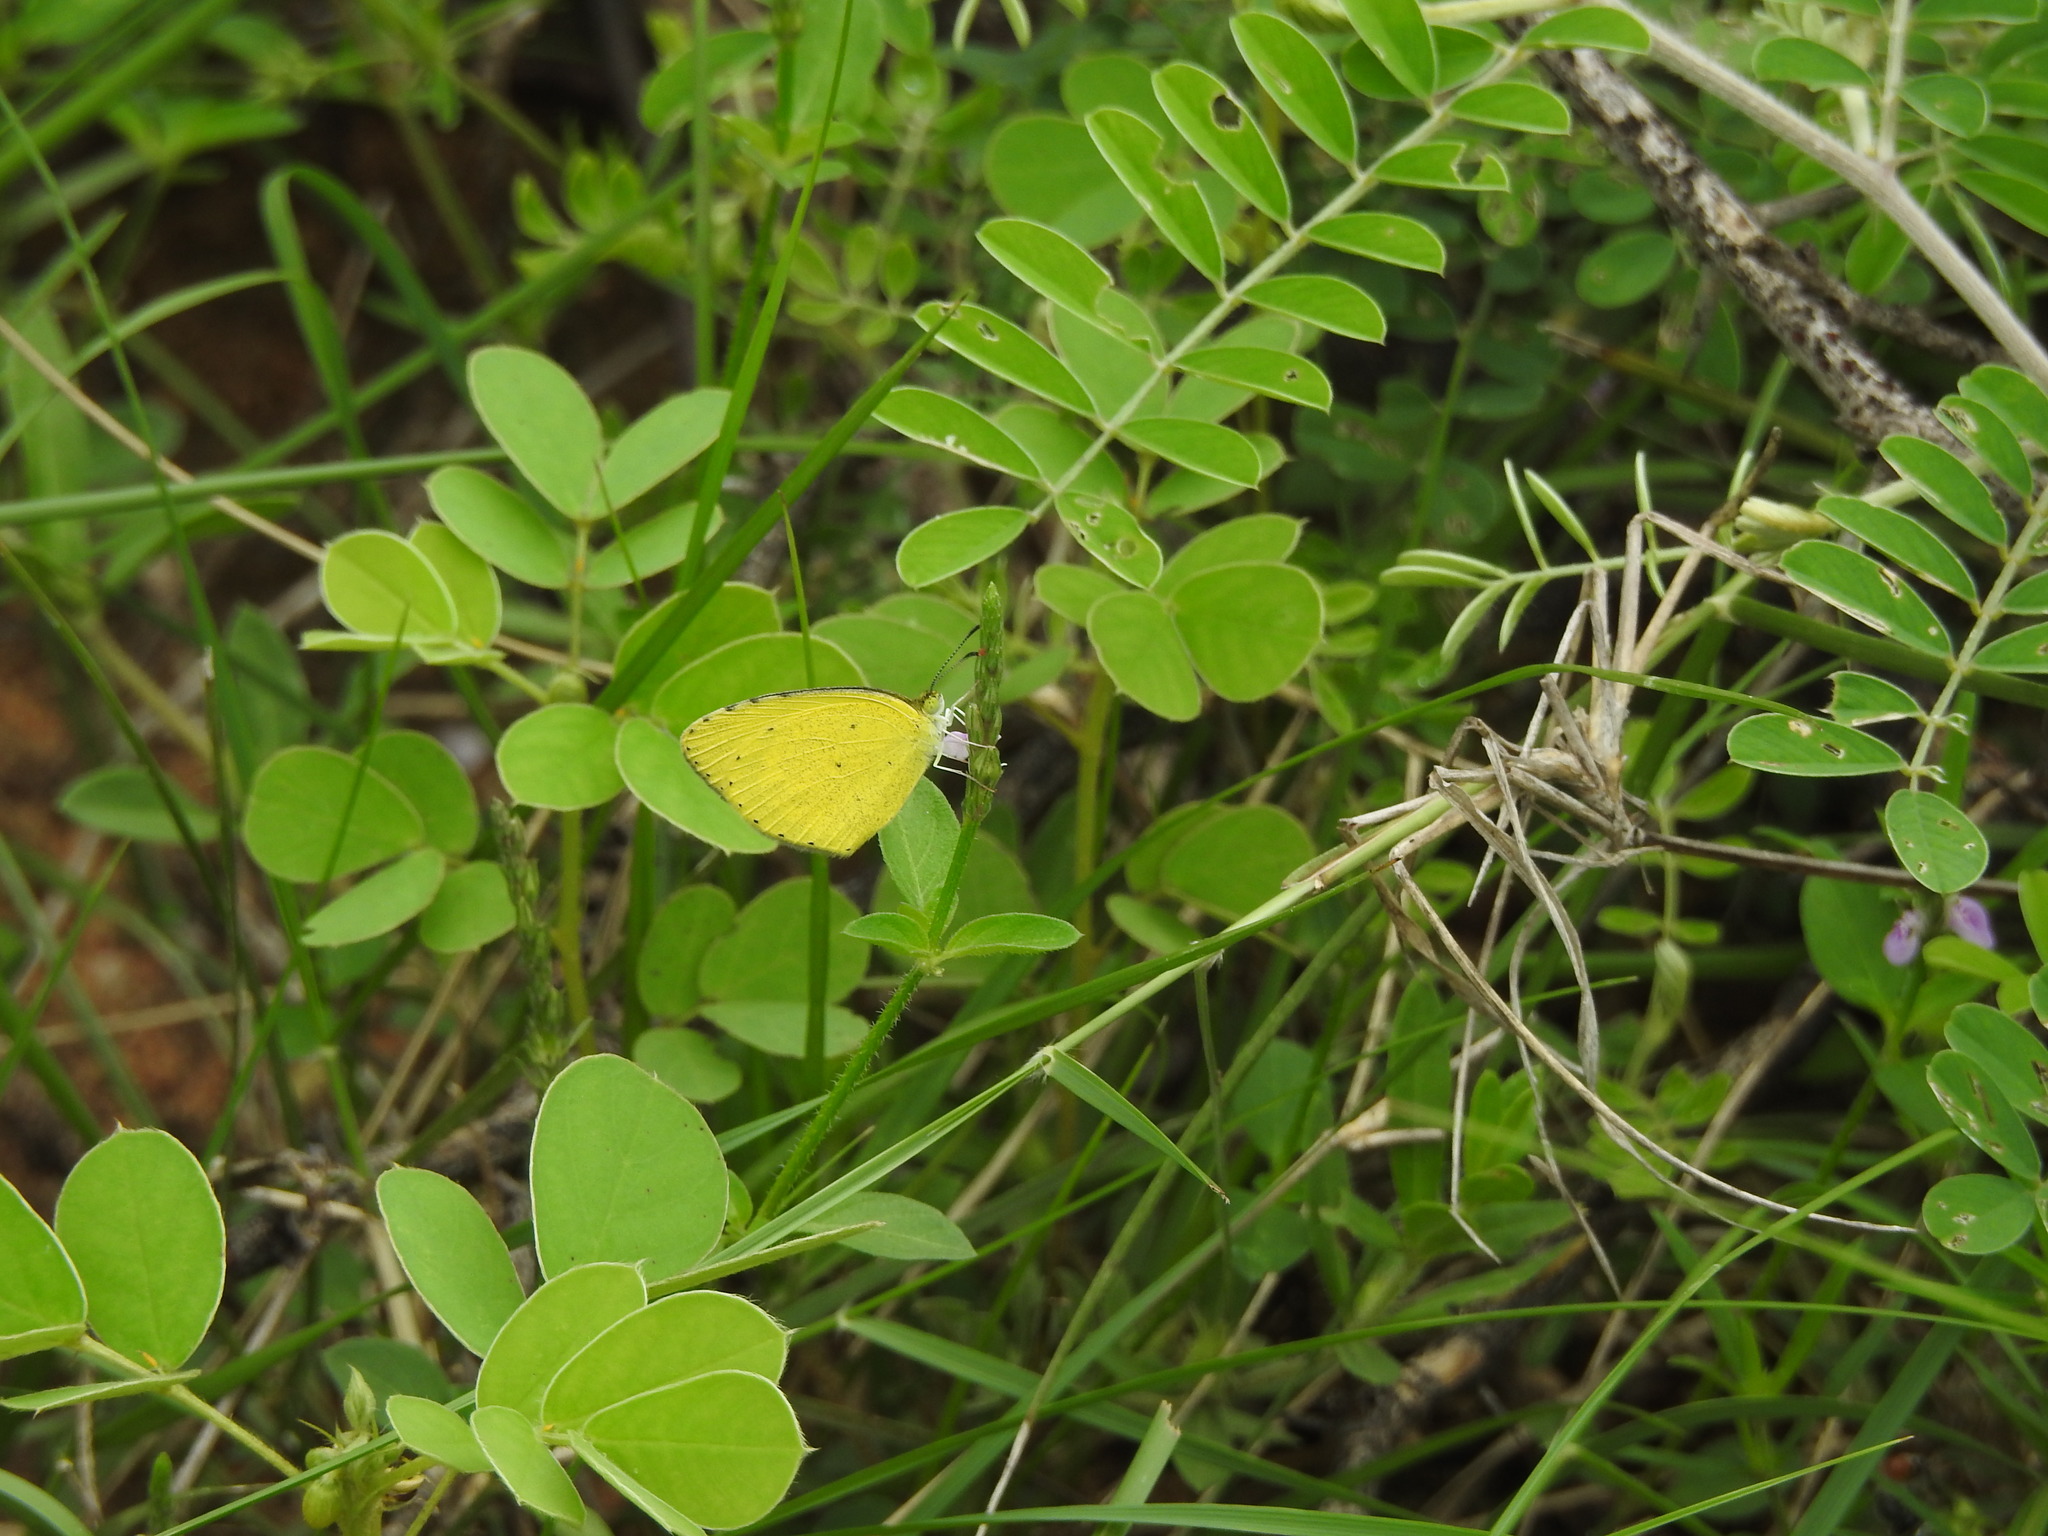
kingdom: Animalia
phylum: Arthropoda
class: Insecta
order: Lepidoptera
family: Pieridae
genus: Eurema
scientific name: Eurema brigitta
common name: Small grass yellow
